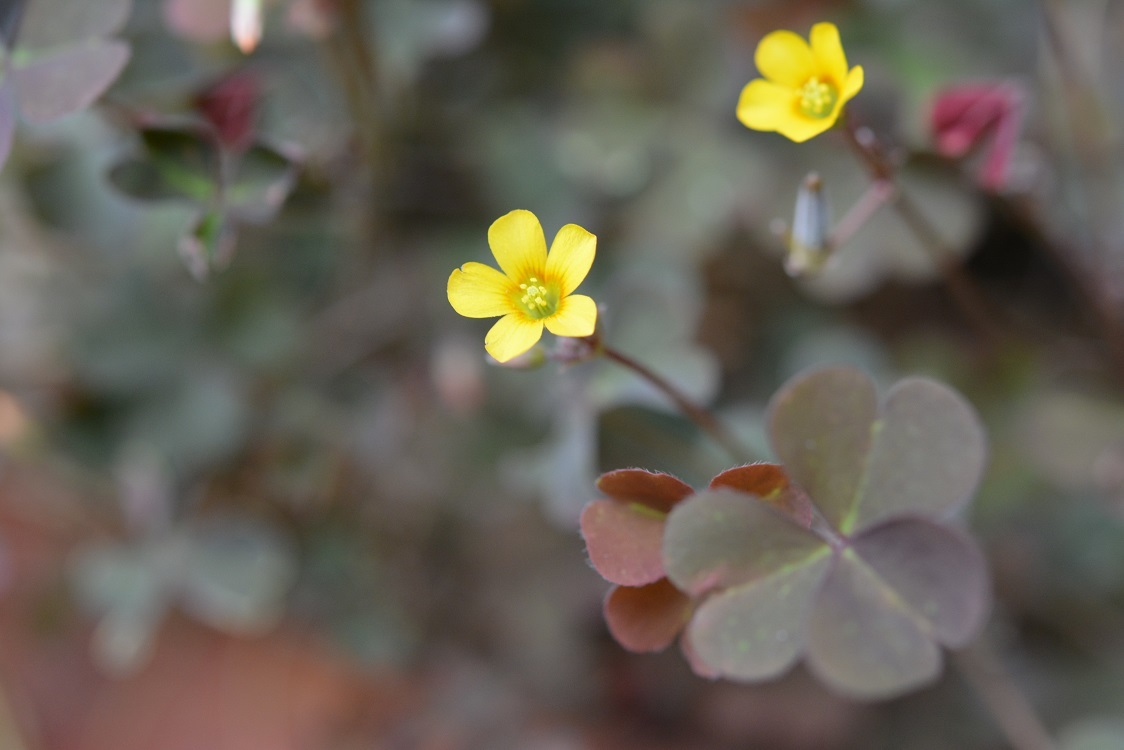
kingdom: Plantae
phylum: Tracheophyta
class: Magnoliopsida
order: Oxalidales
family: Oxalidaceae
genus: Oxalis
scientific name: Oxalis corniculata
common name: Procumbent yellow-sorrel
